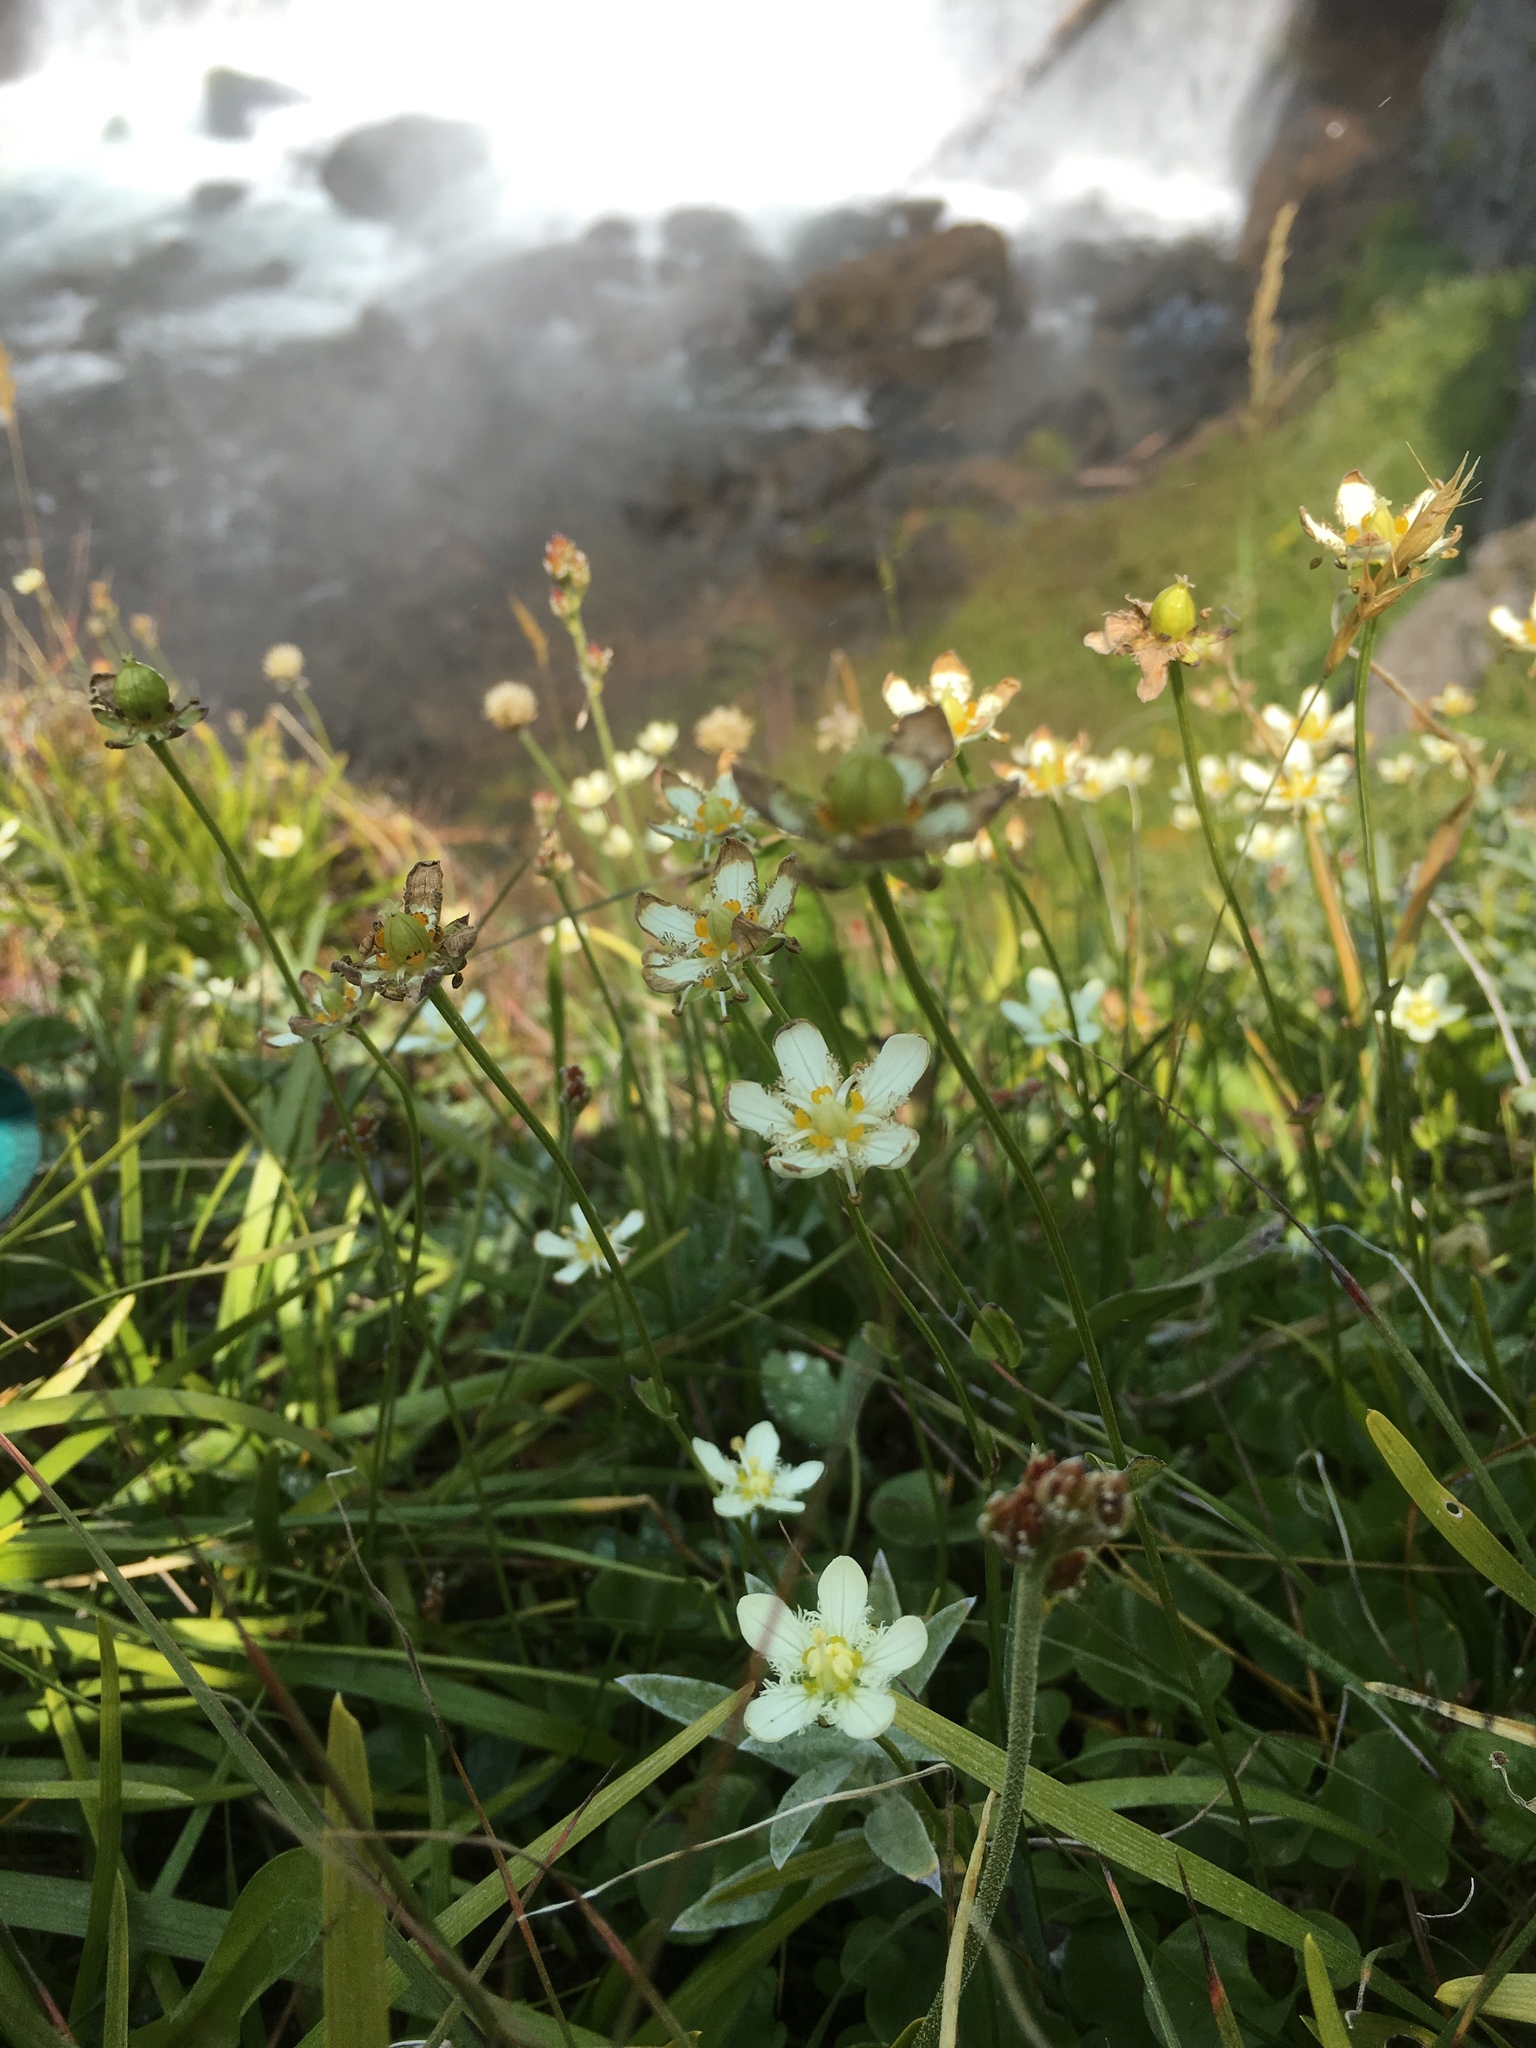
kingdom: Plantae
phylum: Tracheophyta
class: Magnoliopsida
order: Celastrales
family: Parnassiaceae
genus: Parnassia
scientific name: Parnassia fimbriata
